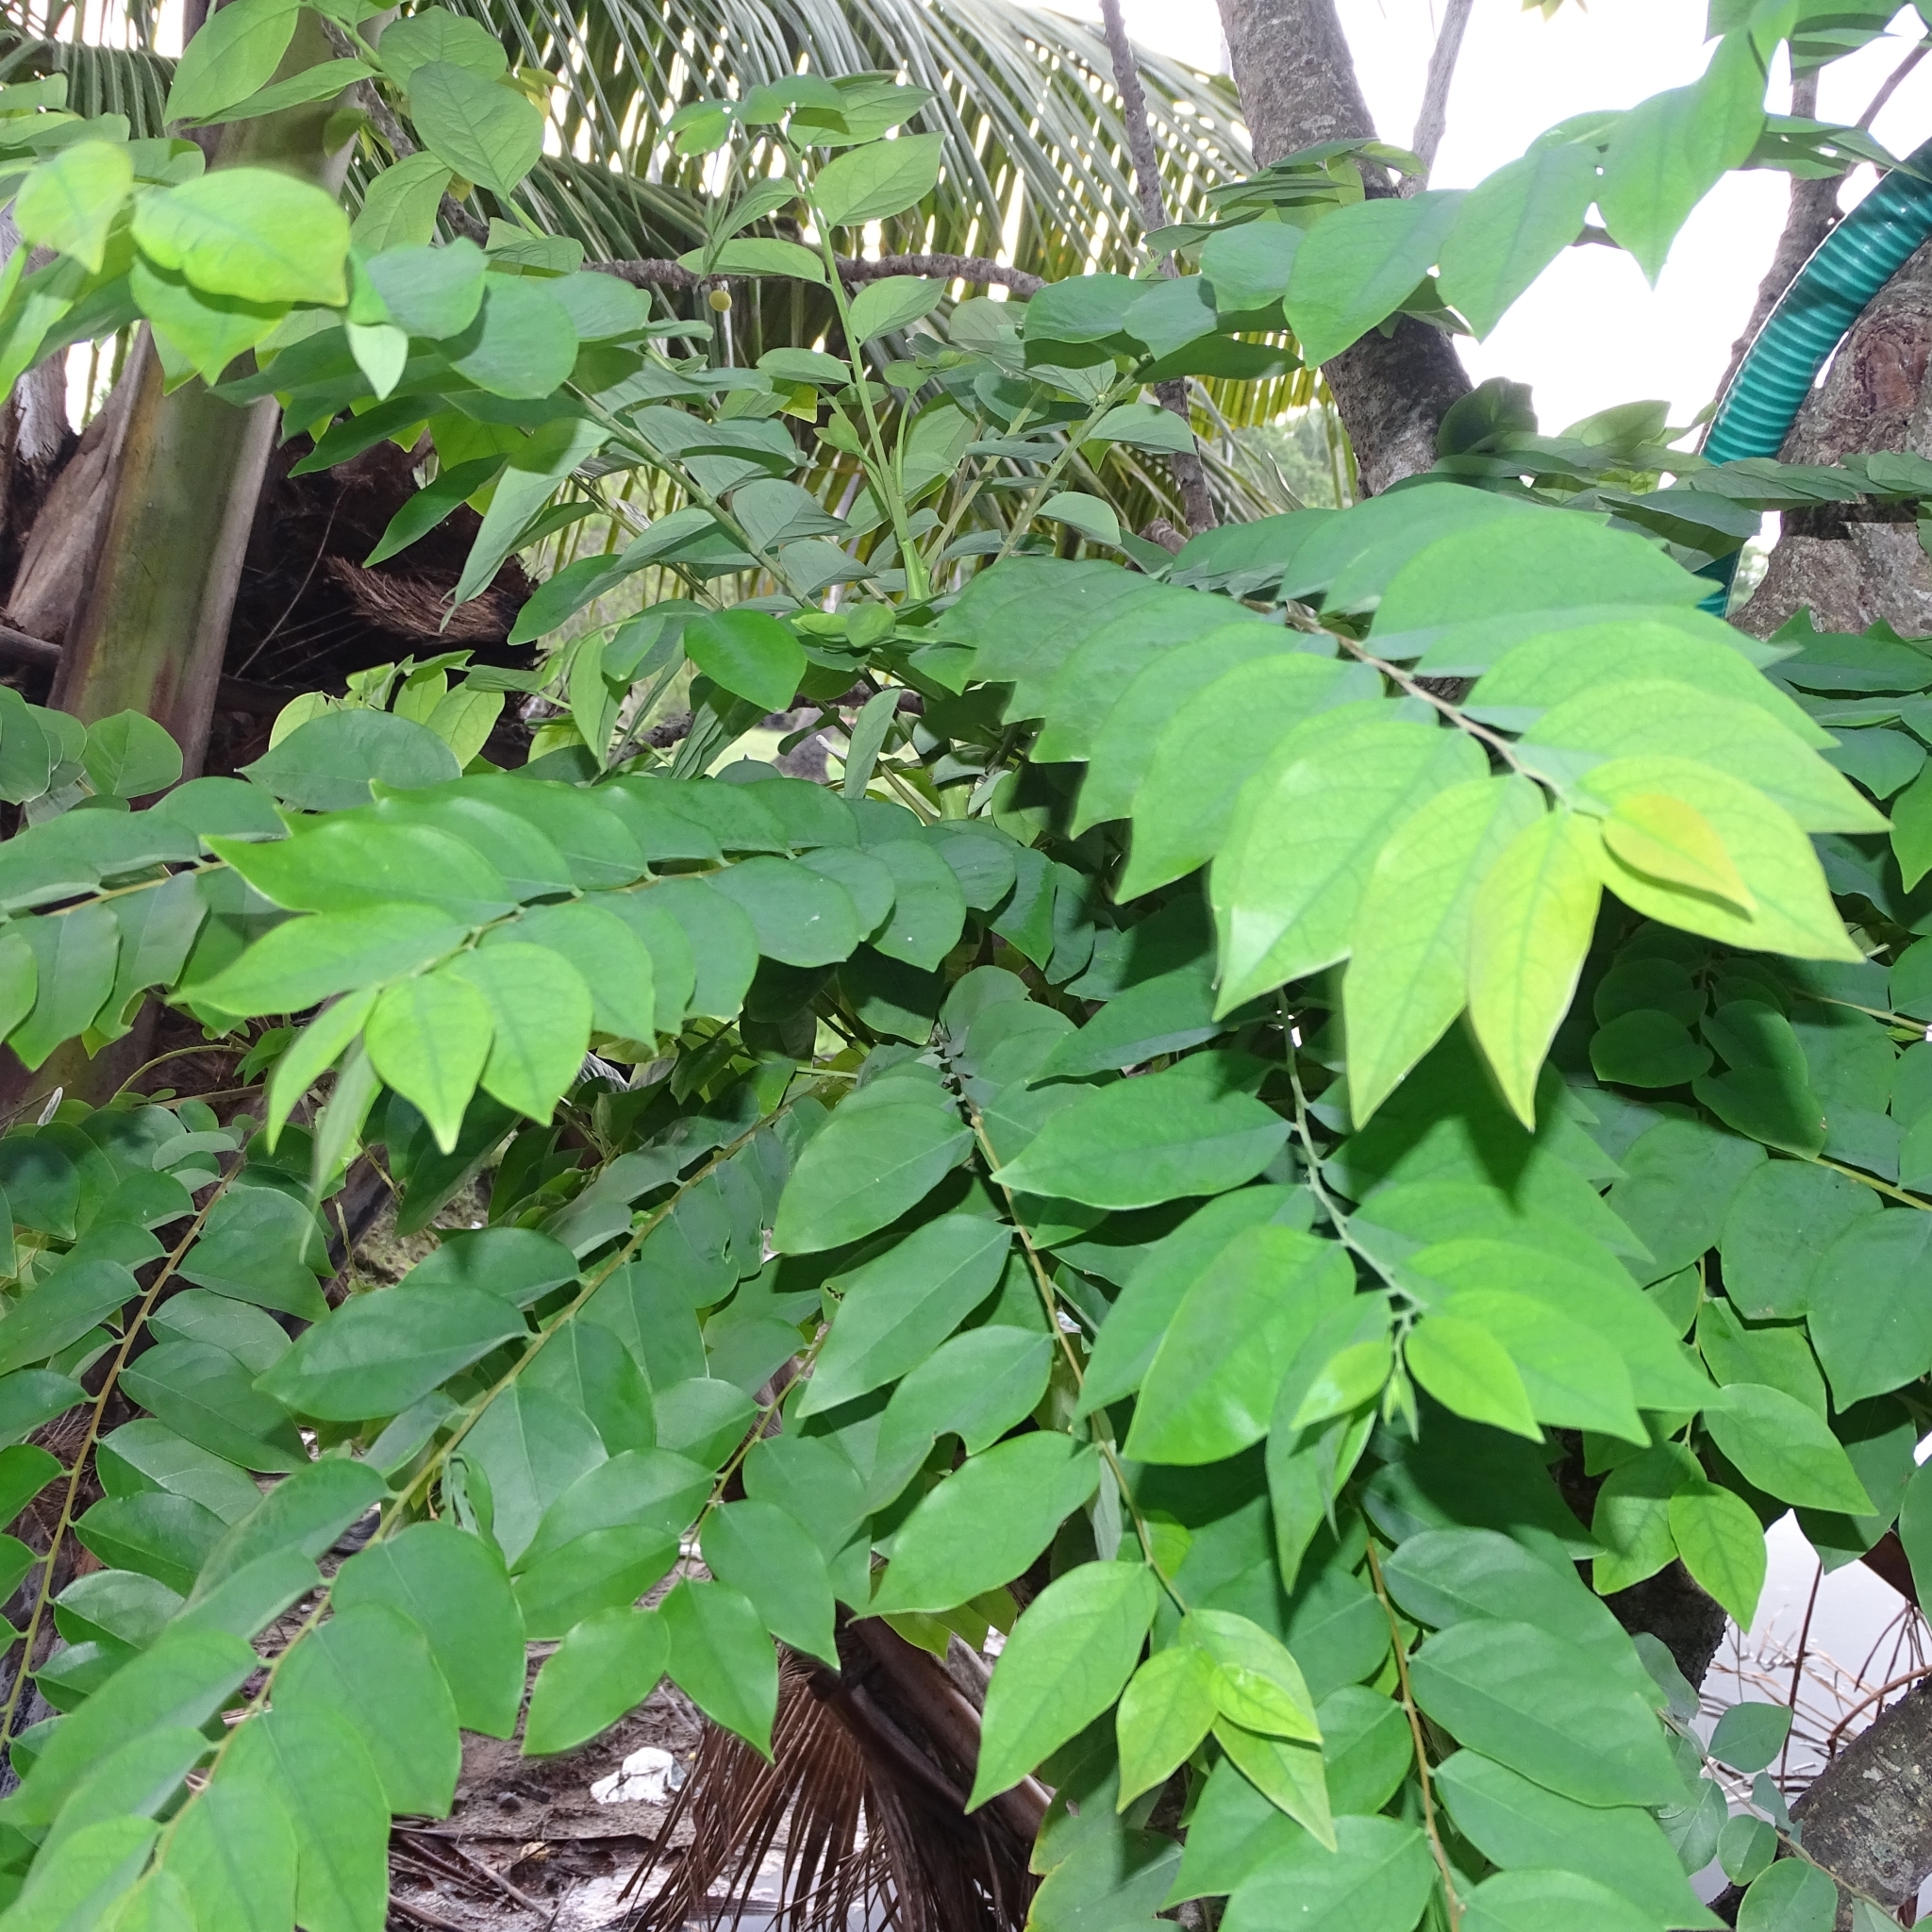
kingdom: Plantae
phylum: Tracheophyta
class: Magnoliopsida
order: Malpighiales
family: Phyllanthaceae
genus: Phyllanthus
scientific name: Phyllanthus acidus
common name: Tahitian gooseberry tree
